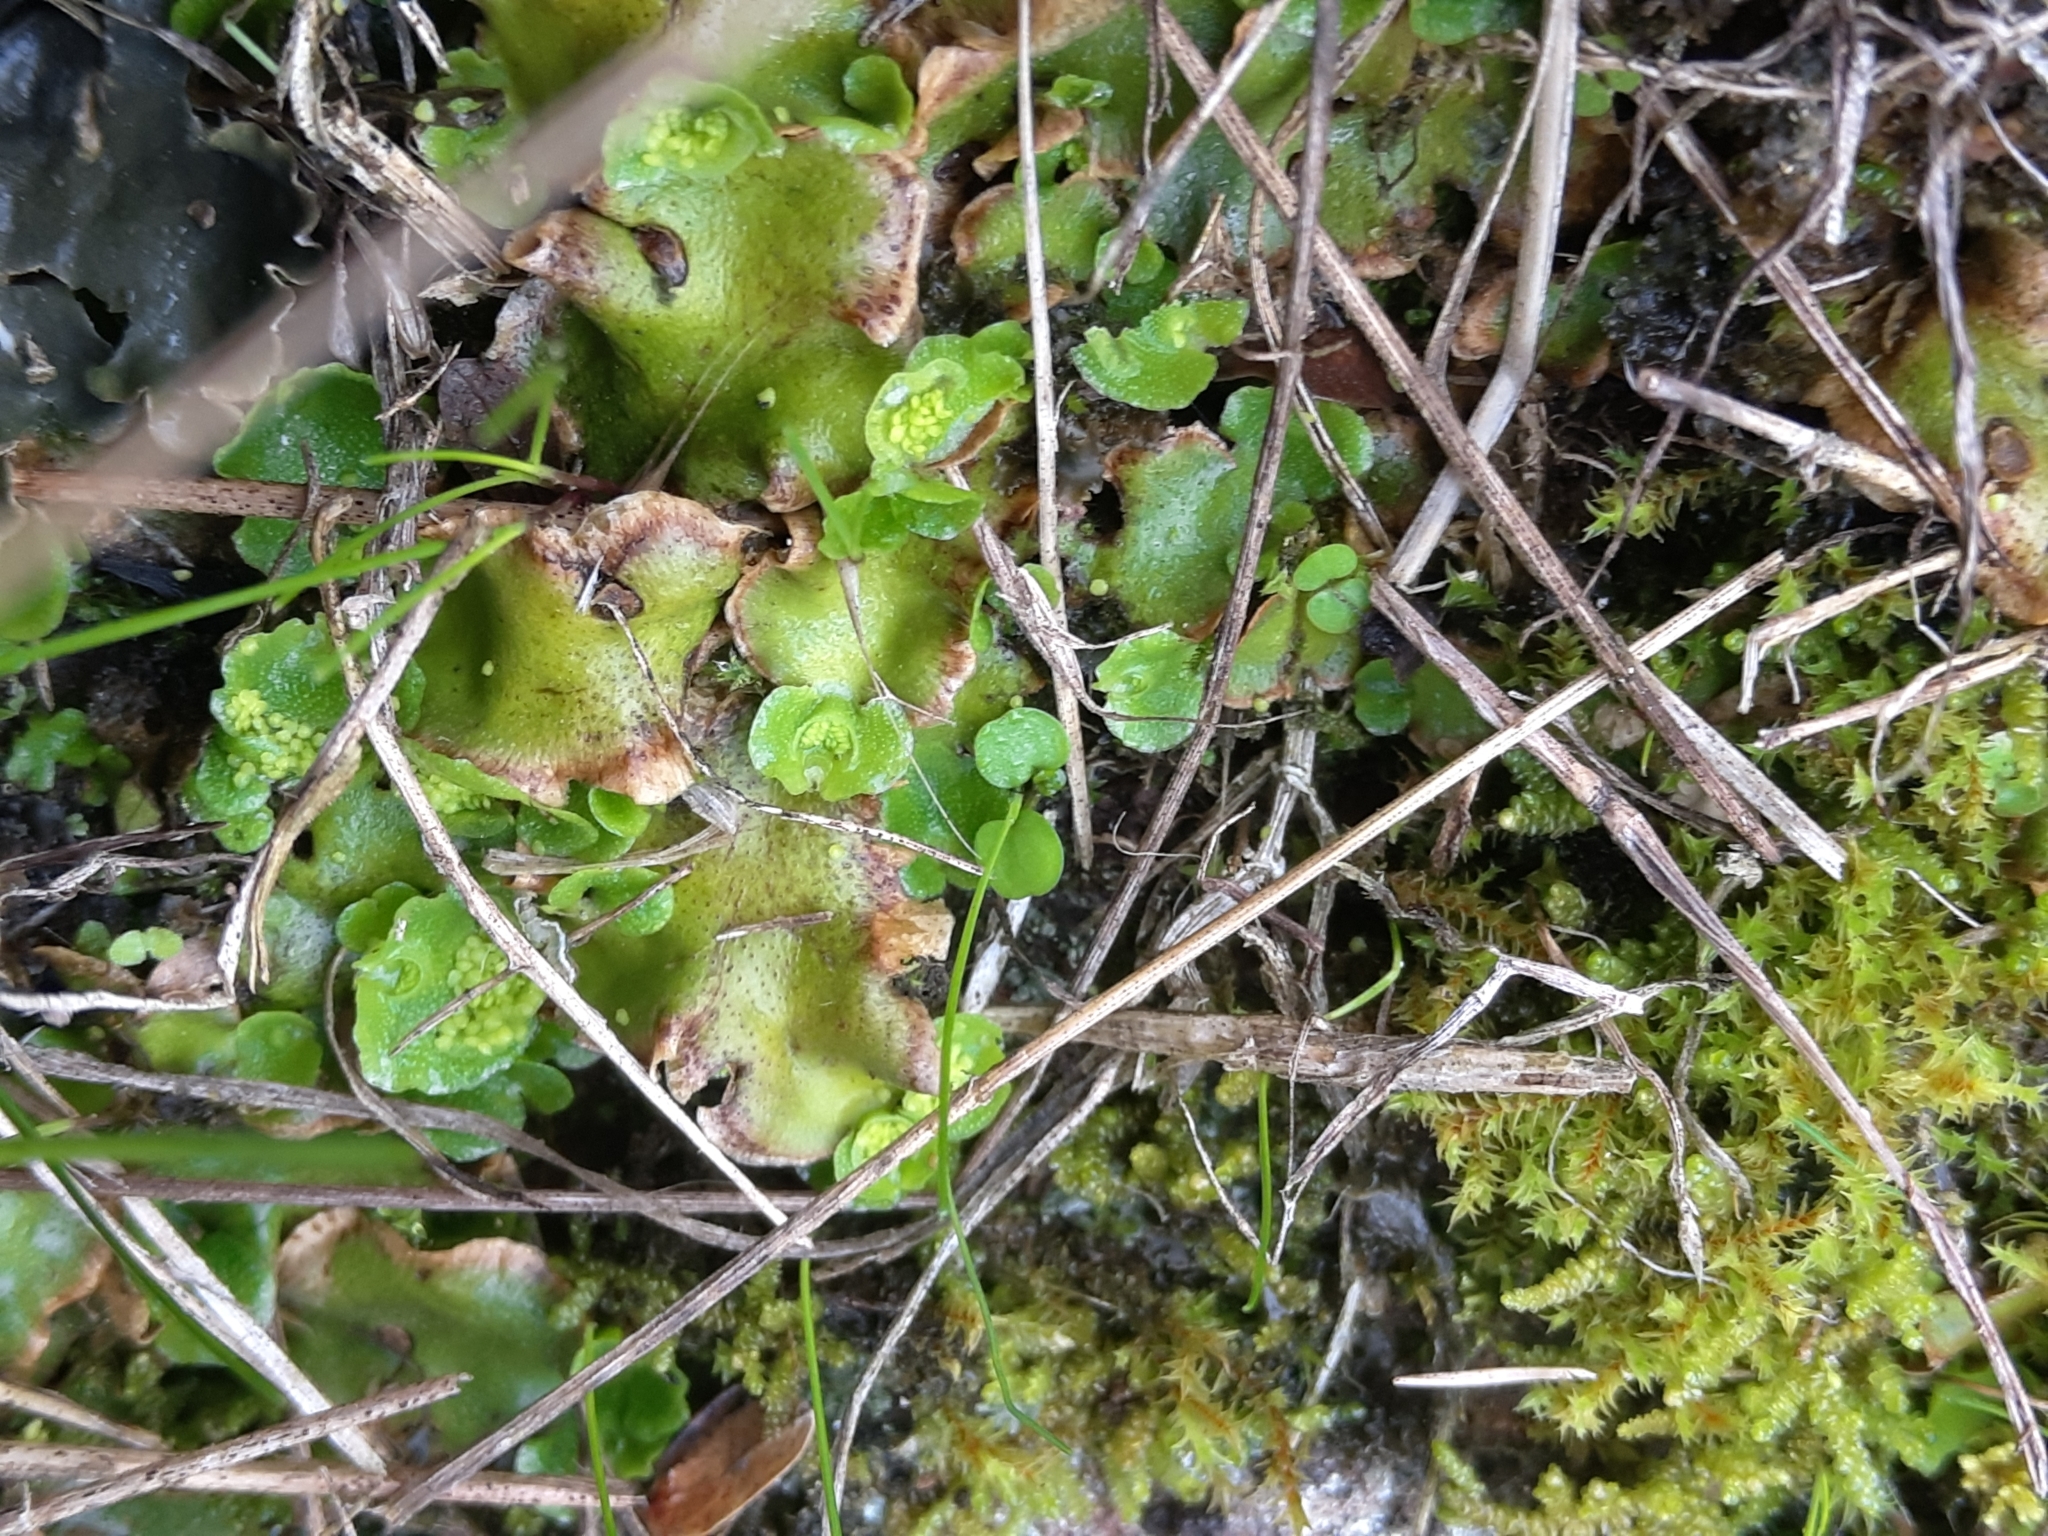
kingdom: Plantae
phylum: Marchantiophyta
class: Marchantiopsida
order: Lunulariales
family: Lunulariaceae
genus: Lunularia
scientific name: Lunularia cruciata
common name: Crescent-cup liverwort
